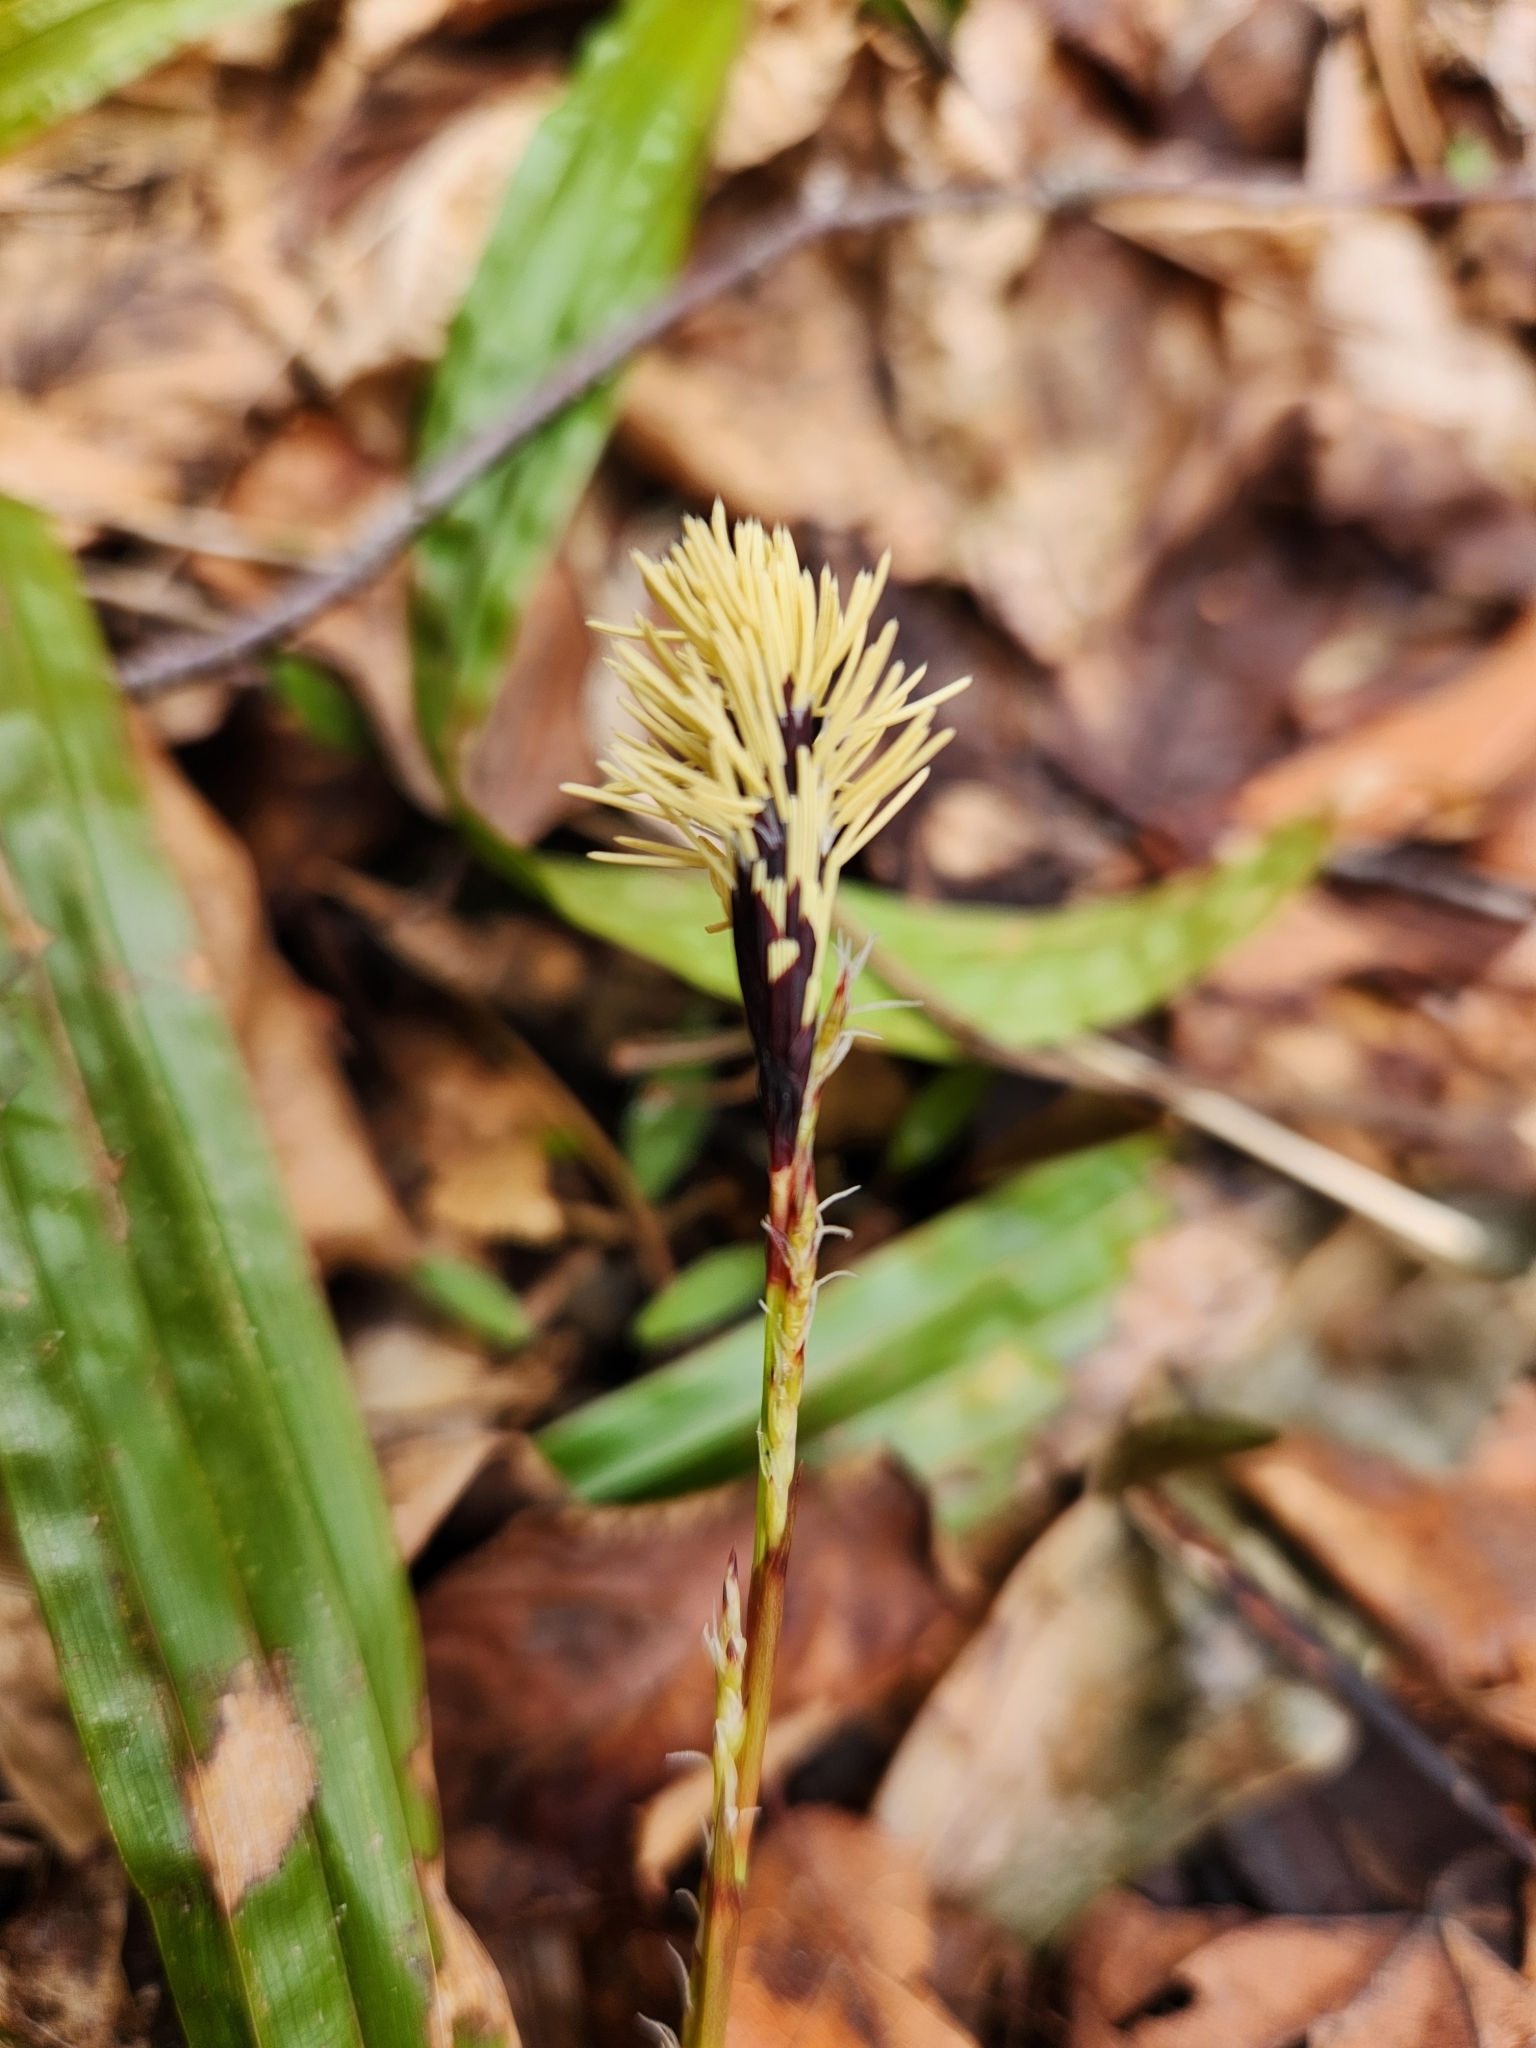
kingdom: Plantae
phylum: Tracheophyta
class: Liliopsida
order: Poales
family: Cyperaceae
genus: Carex
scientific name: Carex plantaginea
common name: Plantain-leaved sedge
